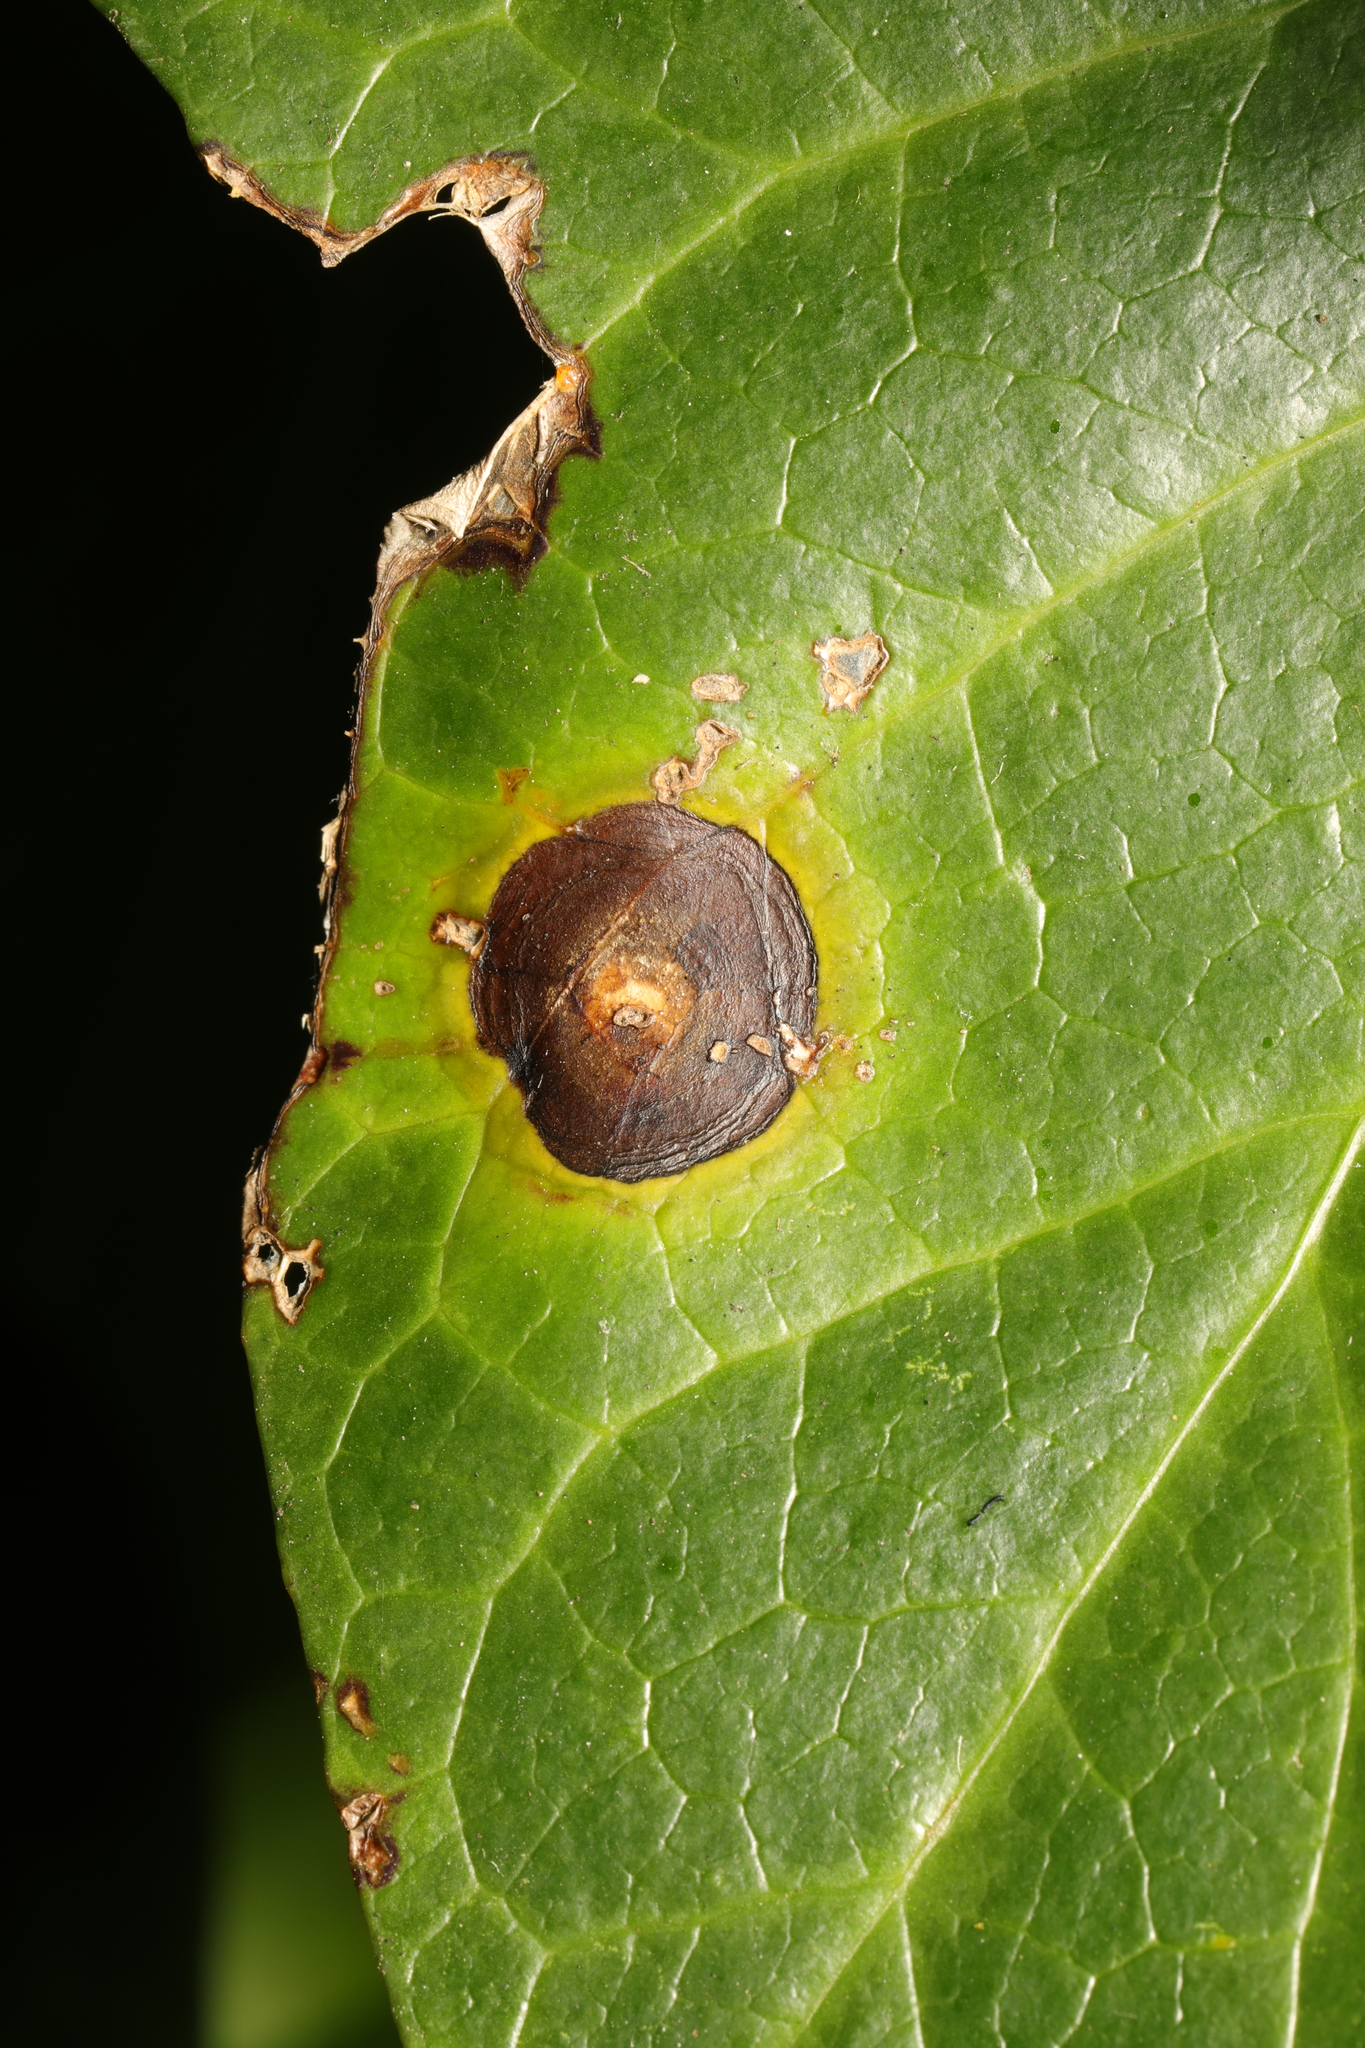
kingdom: Fungi
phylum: Ascomycota
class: Dothideomycetes
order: Pleosporales
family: Didymellaceae
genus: Boeremia
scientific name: Boeremia hedericola
